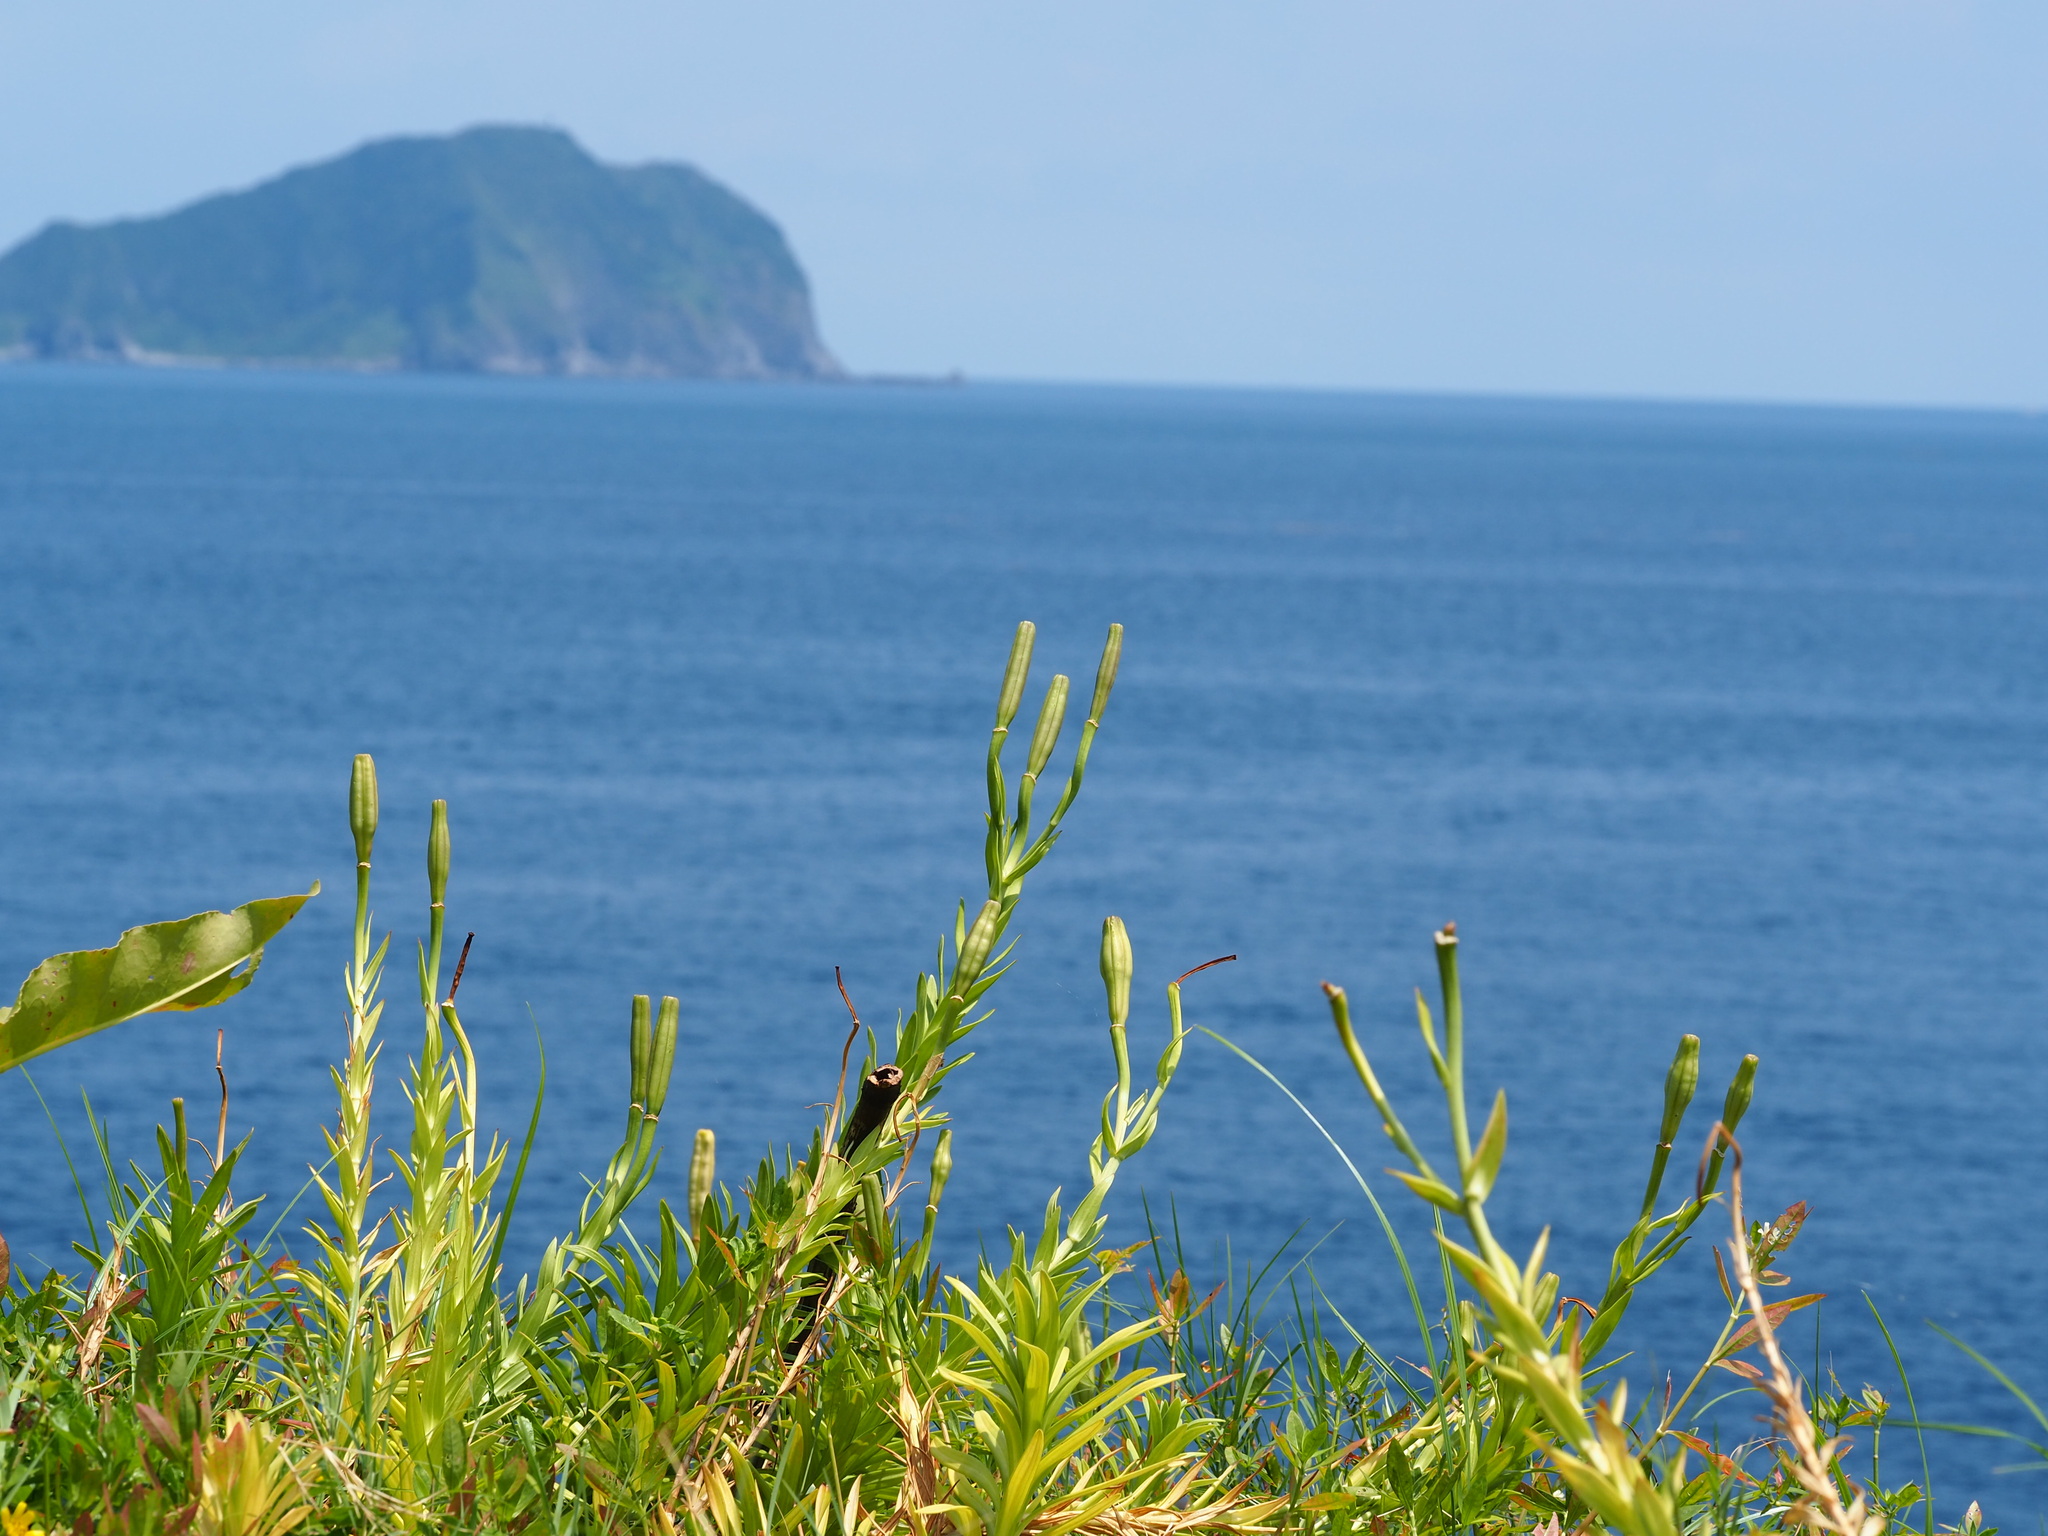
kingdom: Plantae
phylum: Tracheophyta
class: Liliopsida
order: Liliales
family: Liliaceae
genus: Lilium
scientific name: Lilium longiflorum
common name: Easter lily
